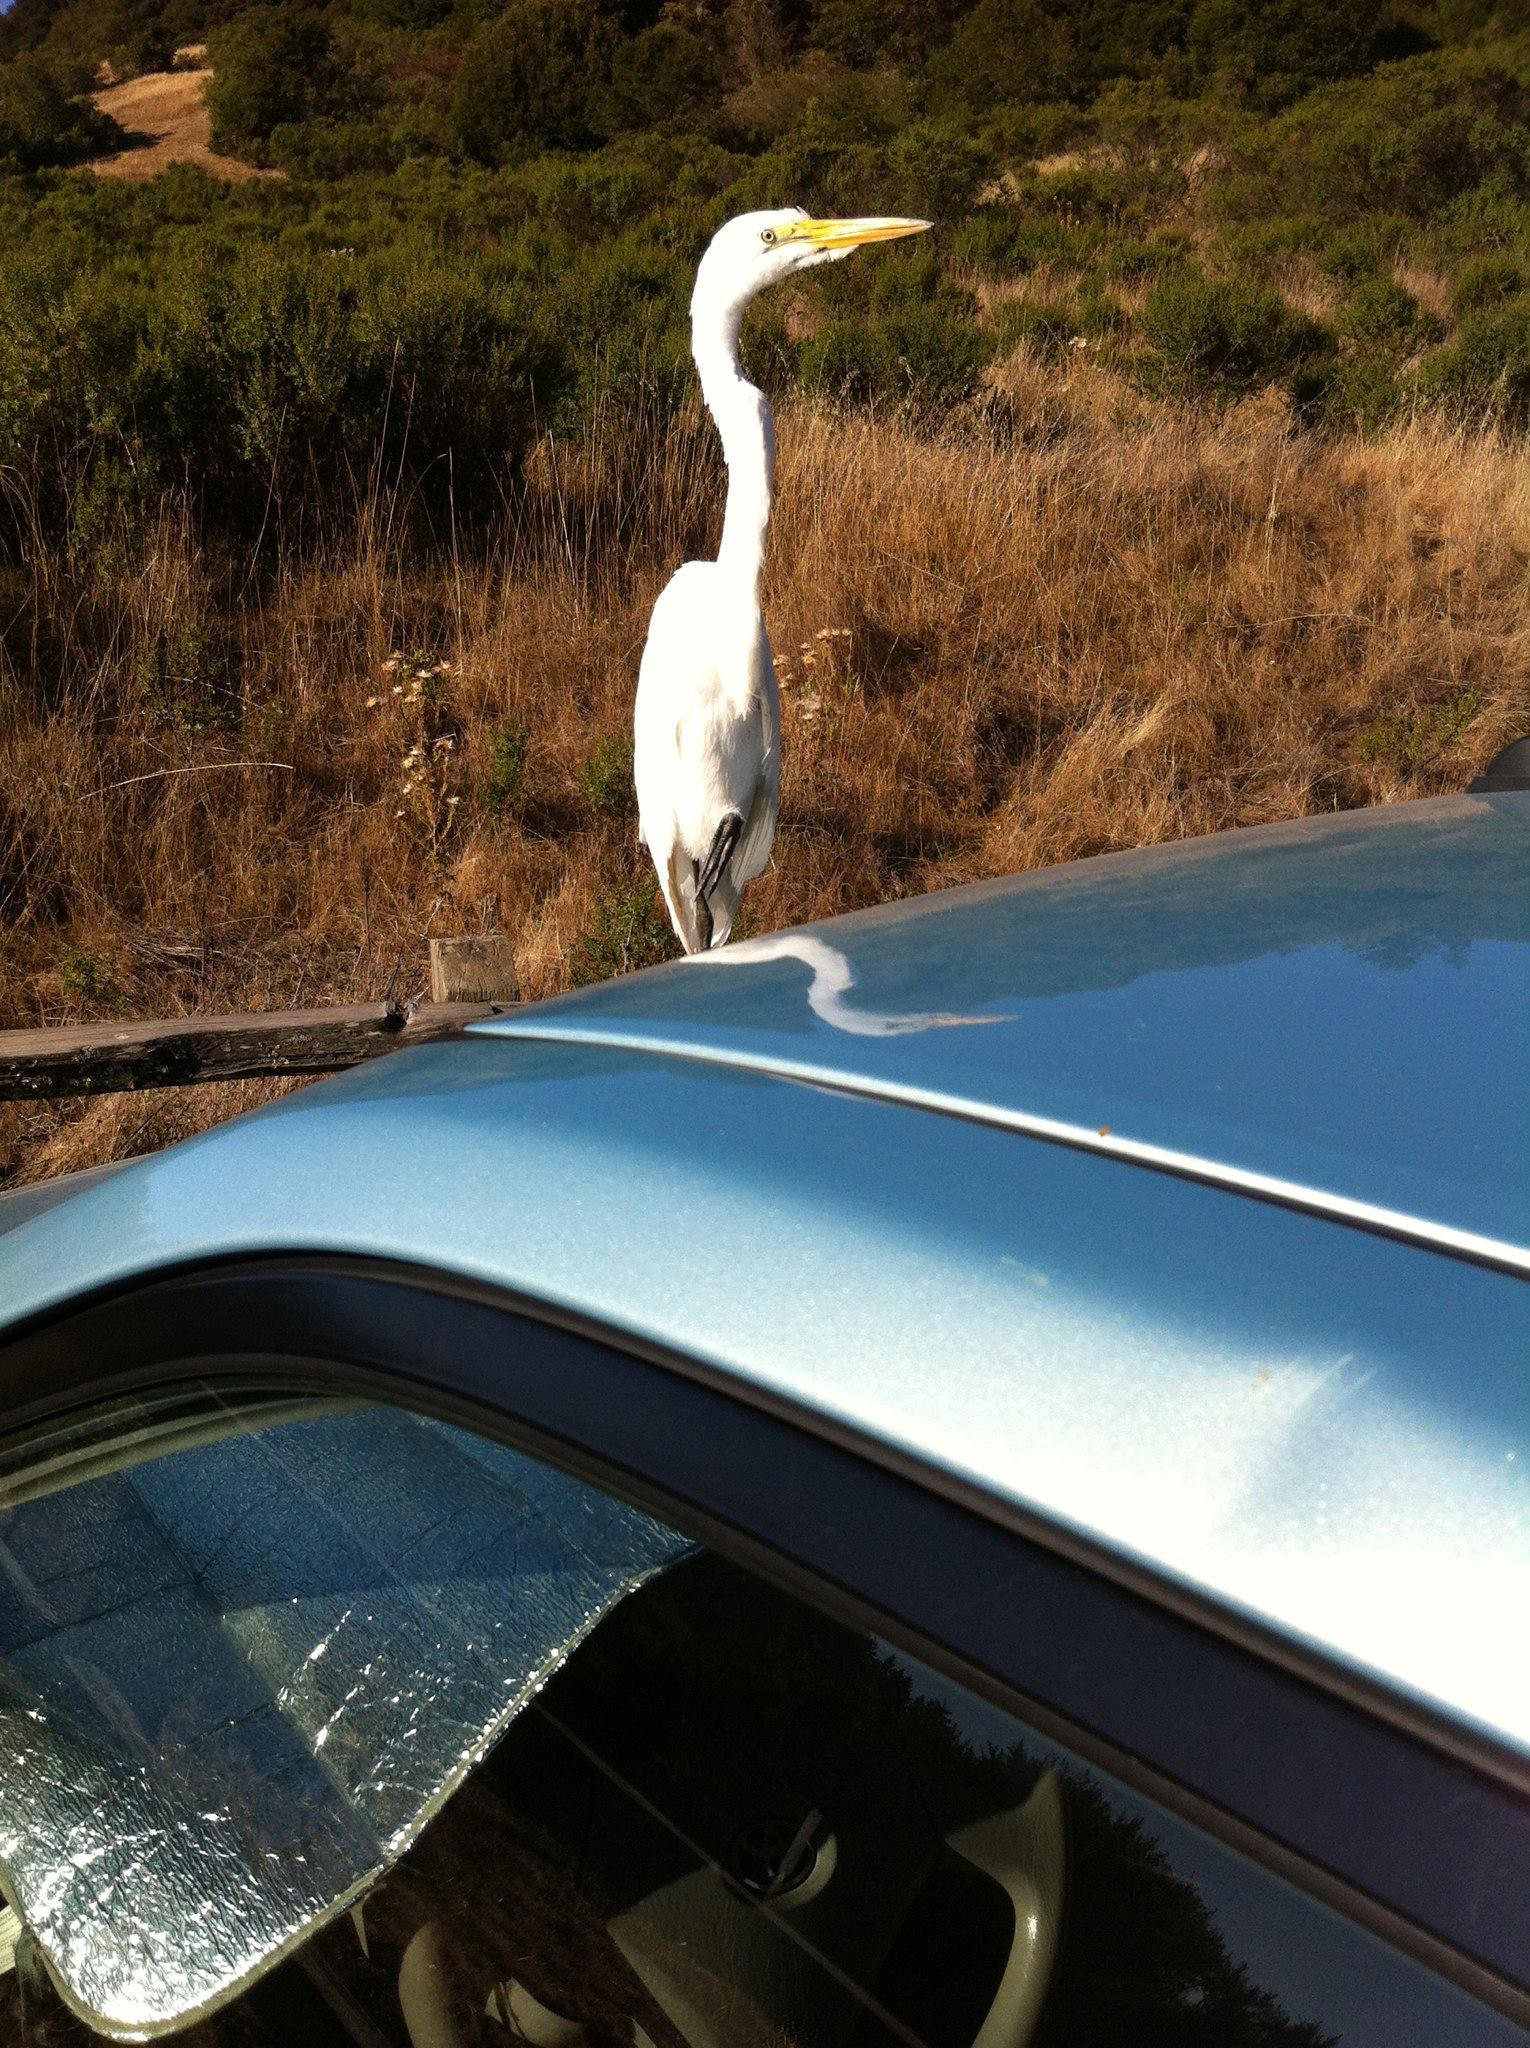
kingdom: Animalia
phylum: Chordata
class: Aves
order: Pelecaniformes
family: Ardeidae
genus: Ardea
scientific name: Ardea alba
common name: Great egret
